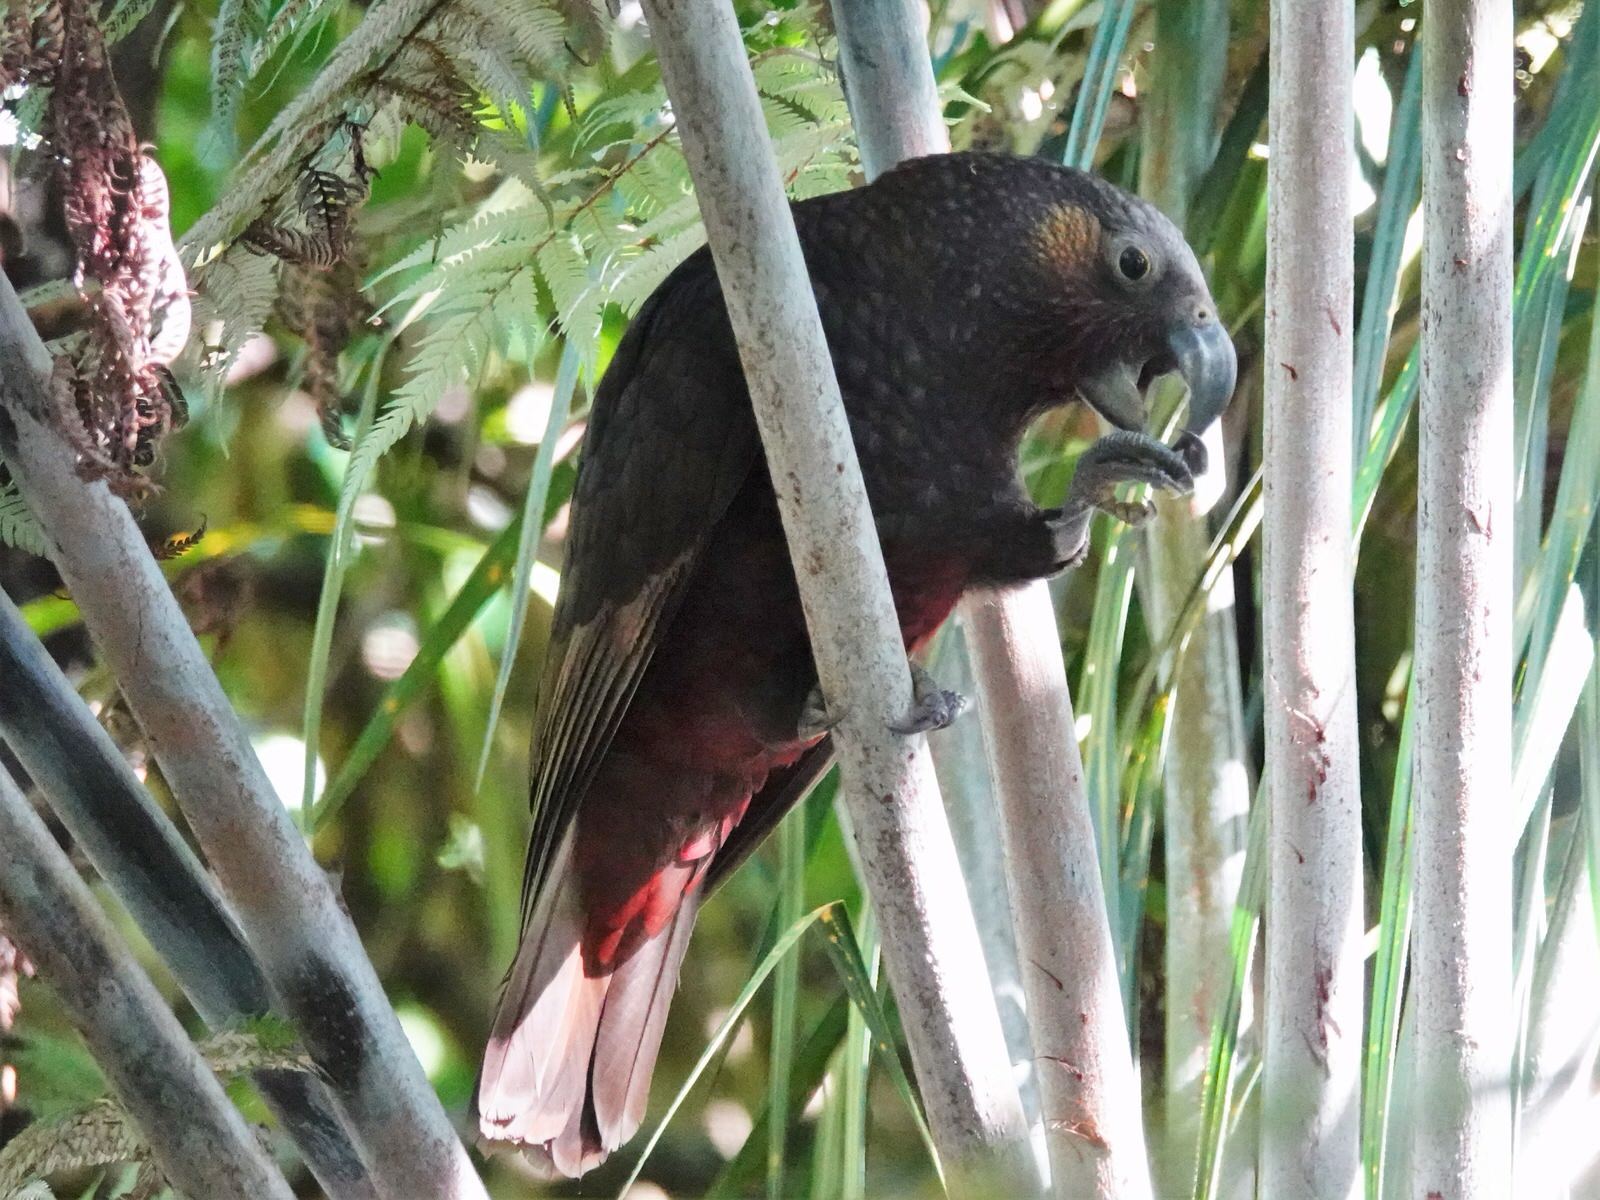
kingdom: Animalia
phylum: Chordata
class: Aves
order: Psittaciformes
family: Psittacidae
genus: Nestor
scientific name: Nestor meridionalis
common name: New zealand kaka
